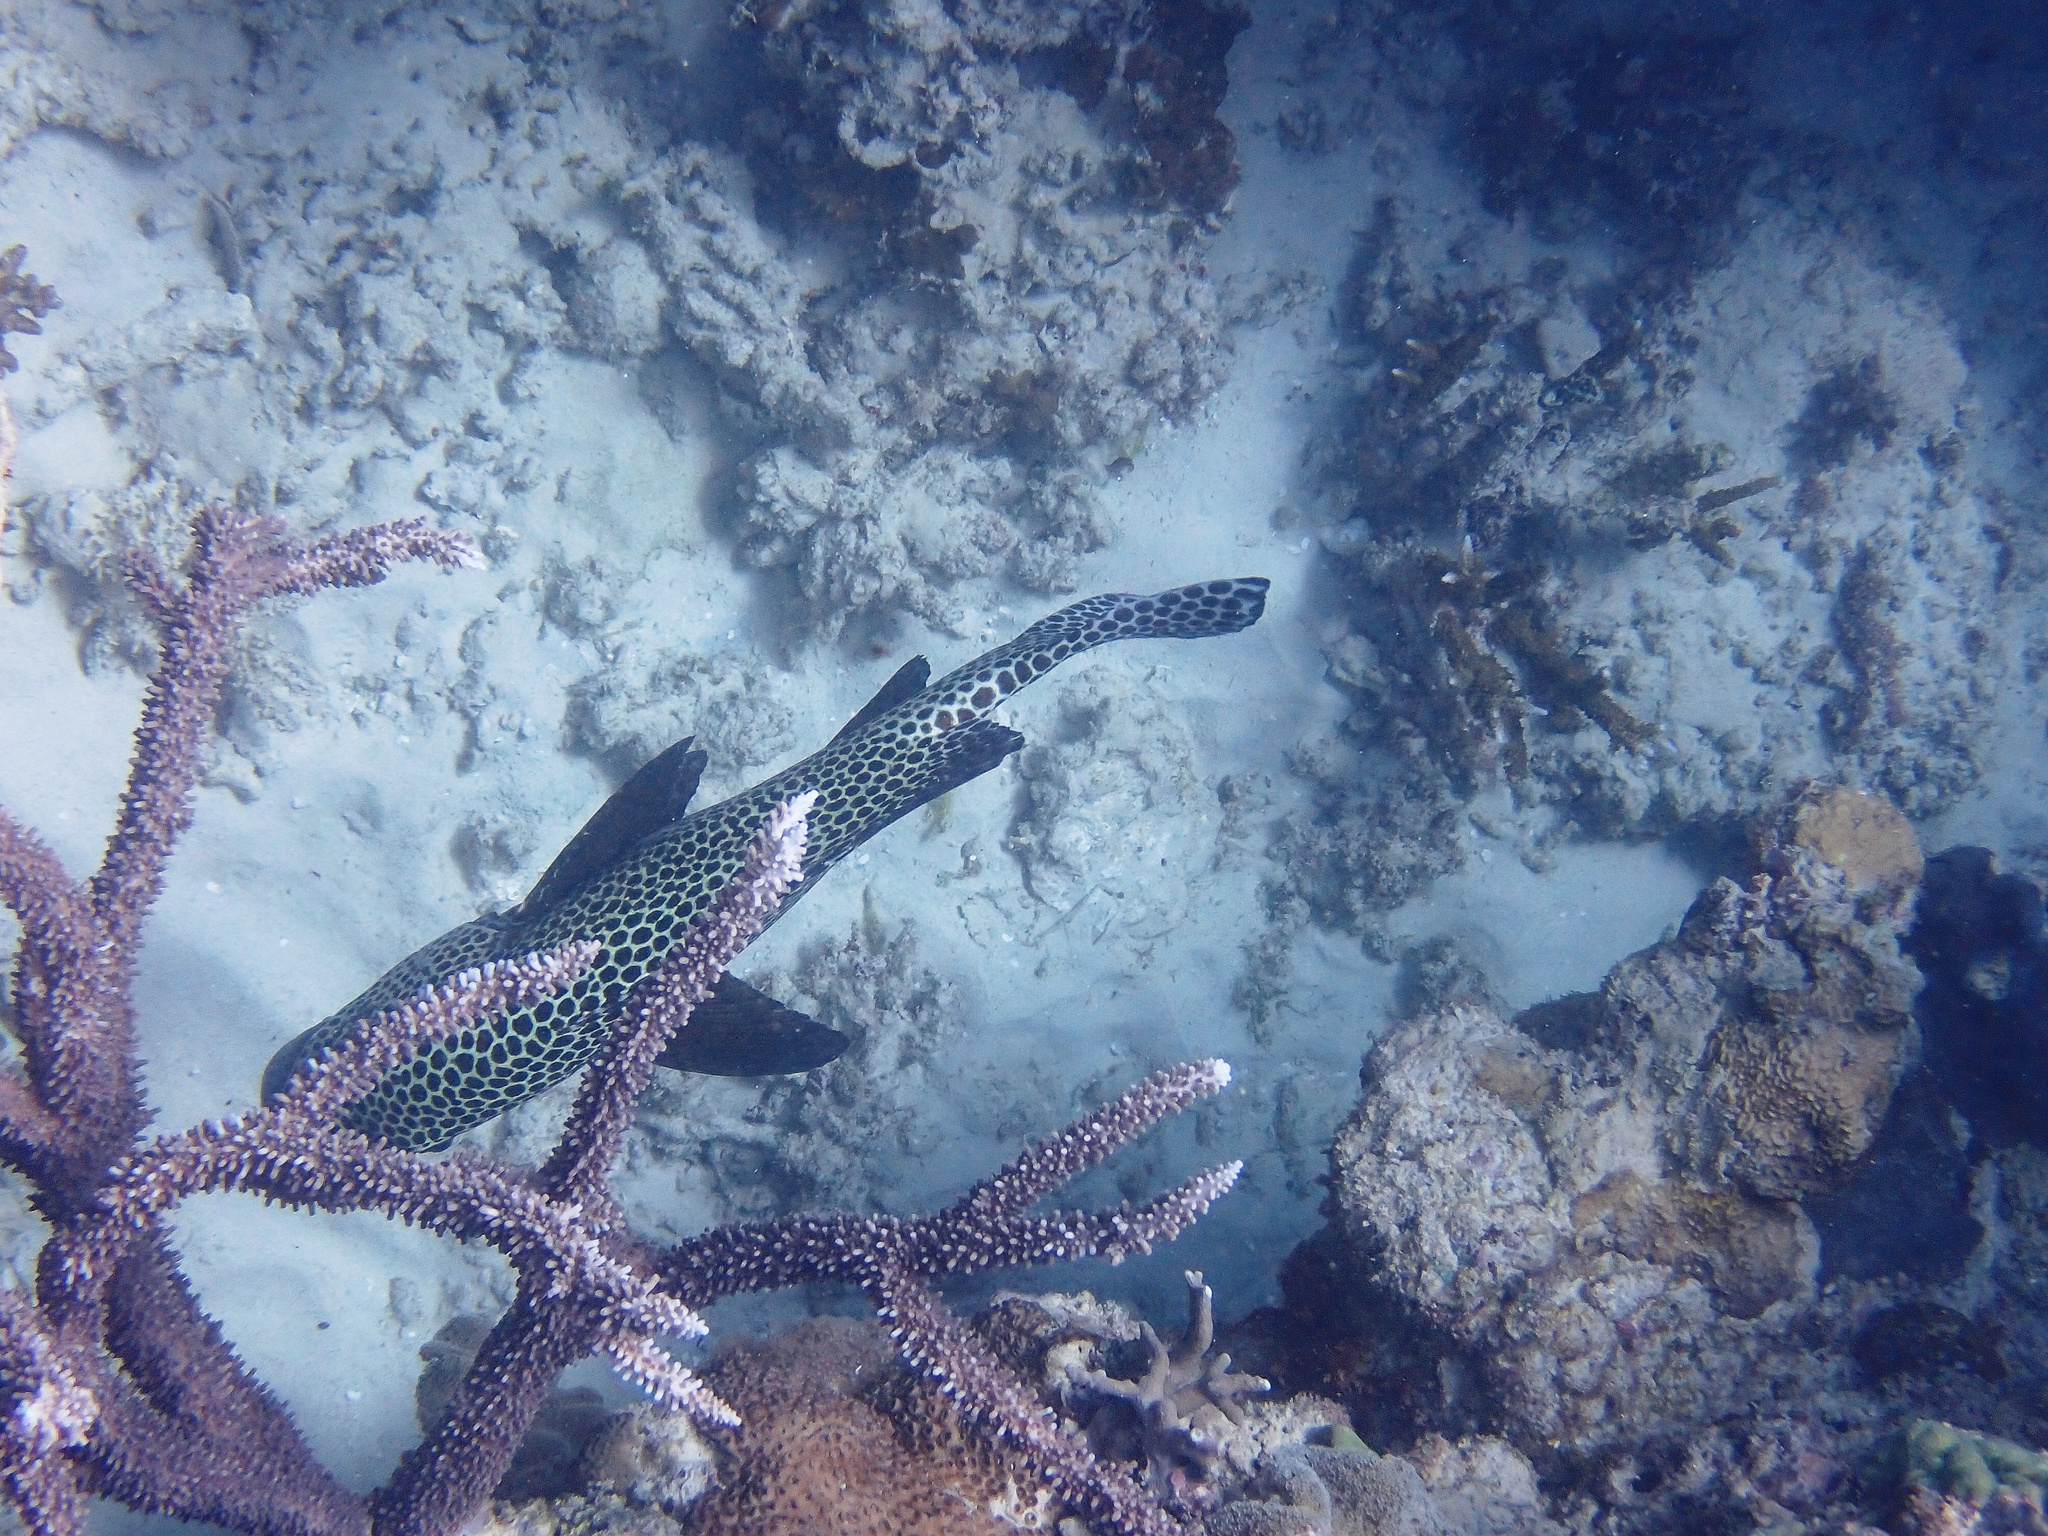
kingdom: Animalia
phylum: Chordata
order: Perciformes
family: Haemulidae
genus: Plectorhinchus
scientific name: Plectorhinchus chaetodonoides
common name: Harlequin sweetlips
